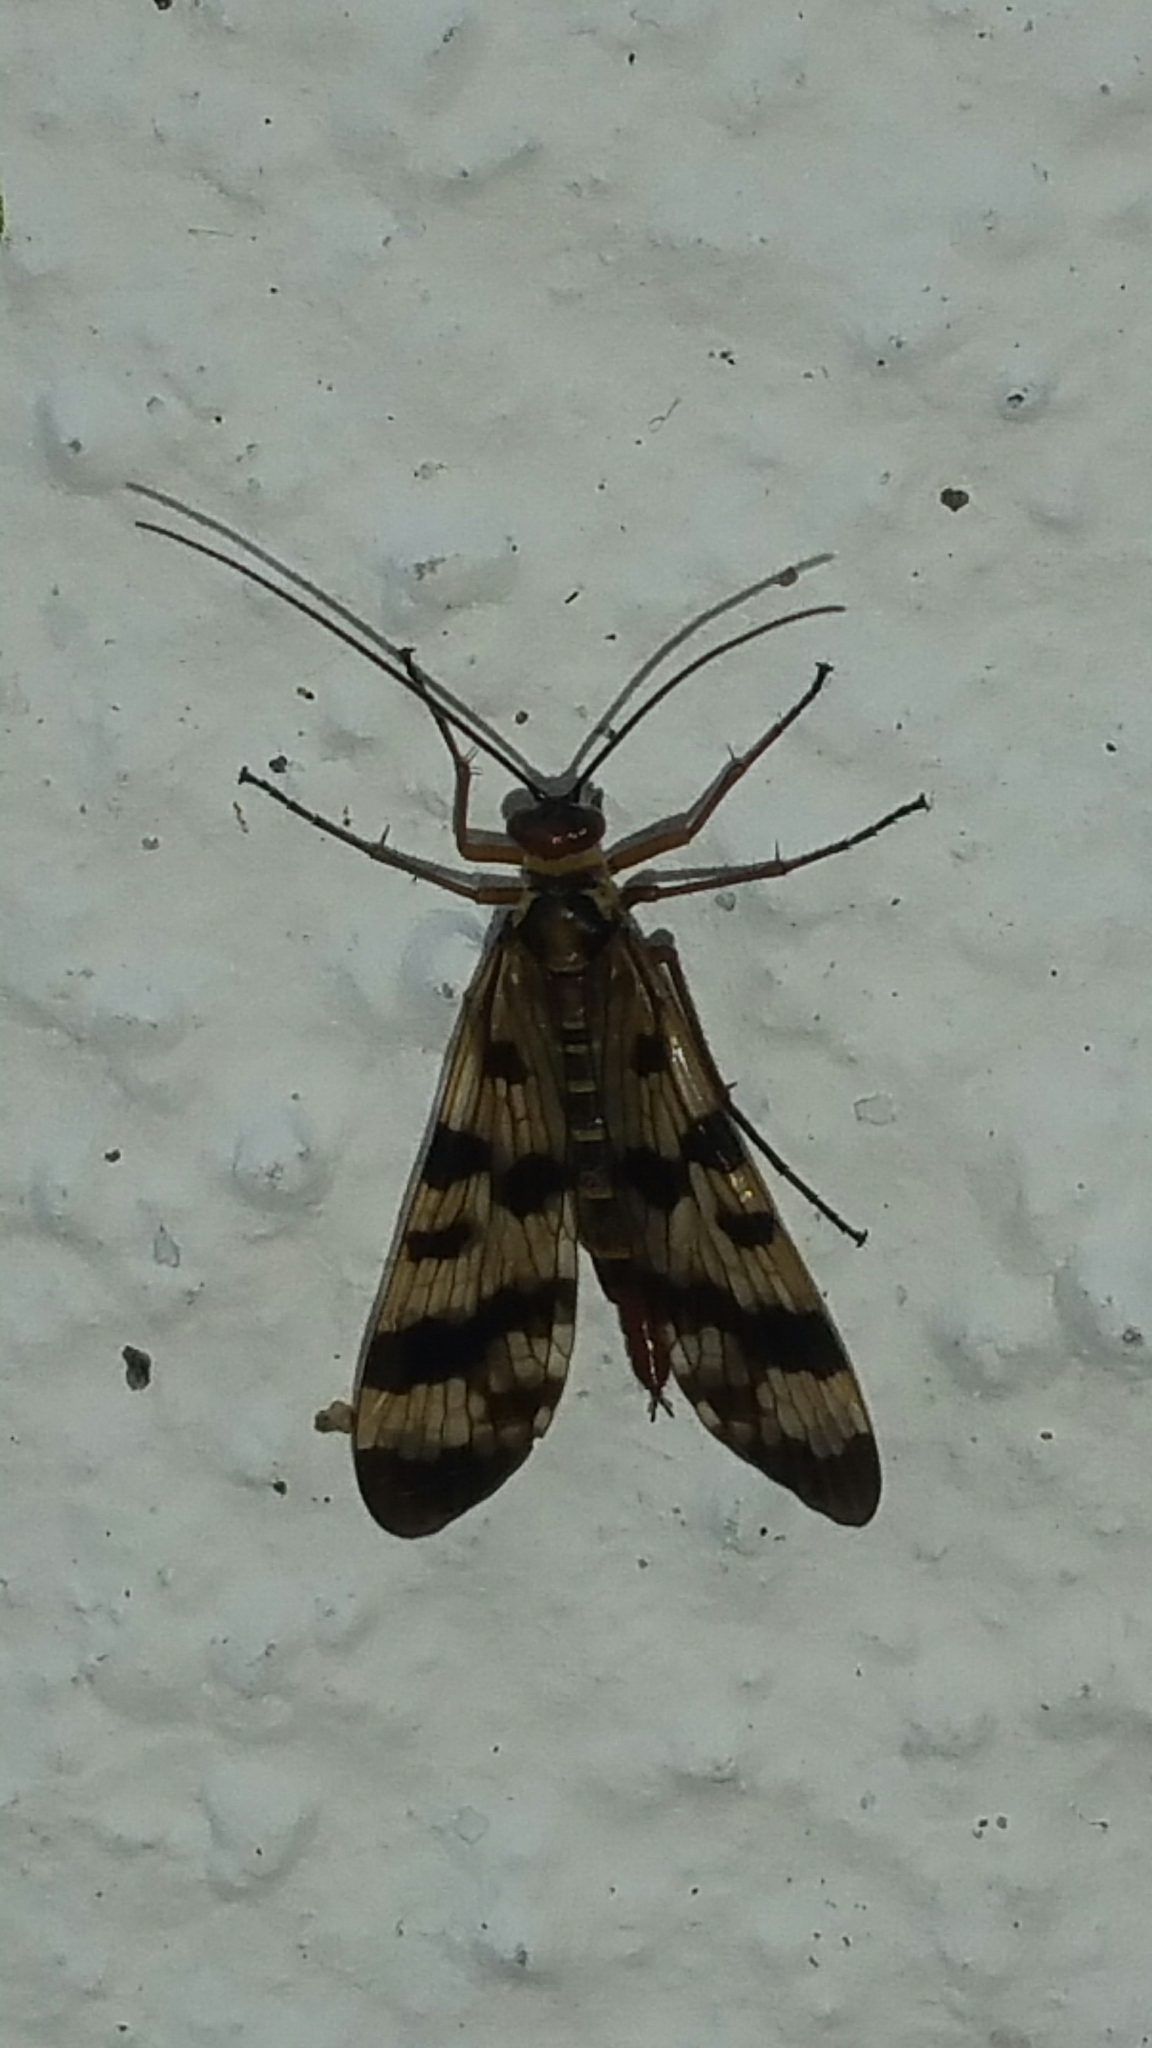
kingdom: Animalia
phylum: Arthropoda
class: Insecta
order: Mecoptera
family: Panorpidae
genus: Panorpa
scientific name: Panorpa meridionalis
